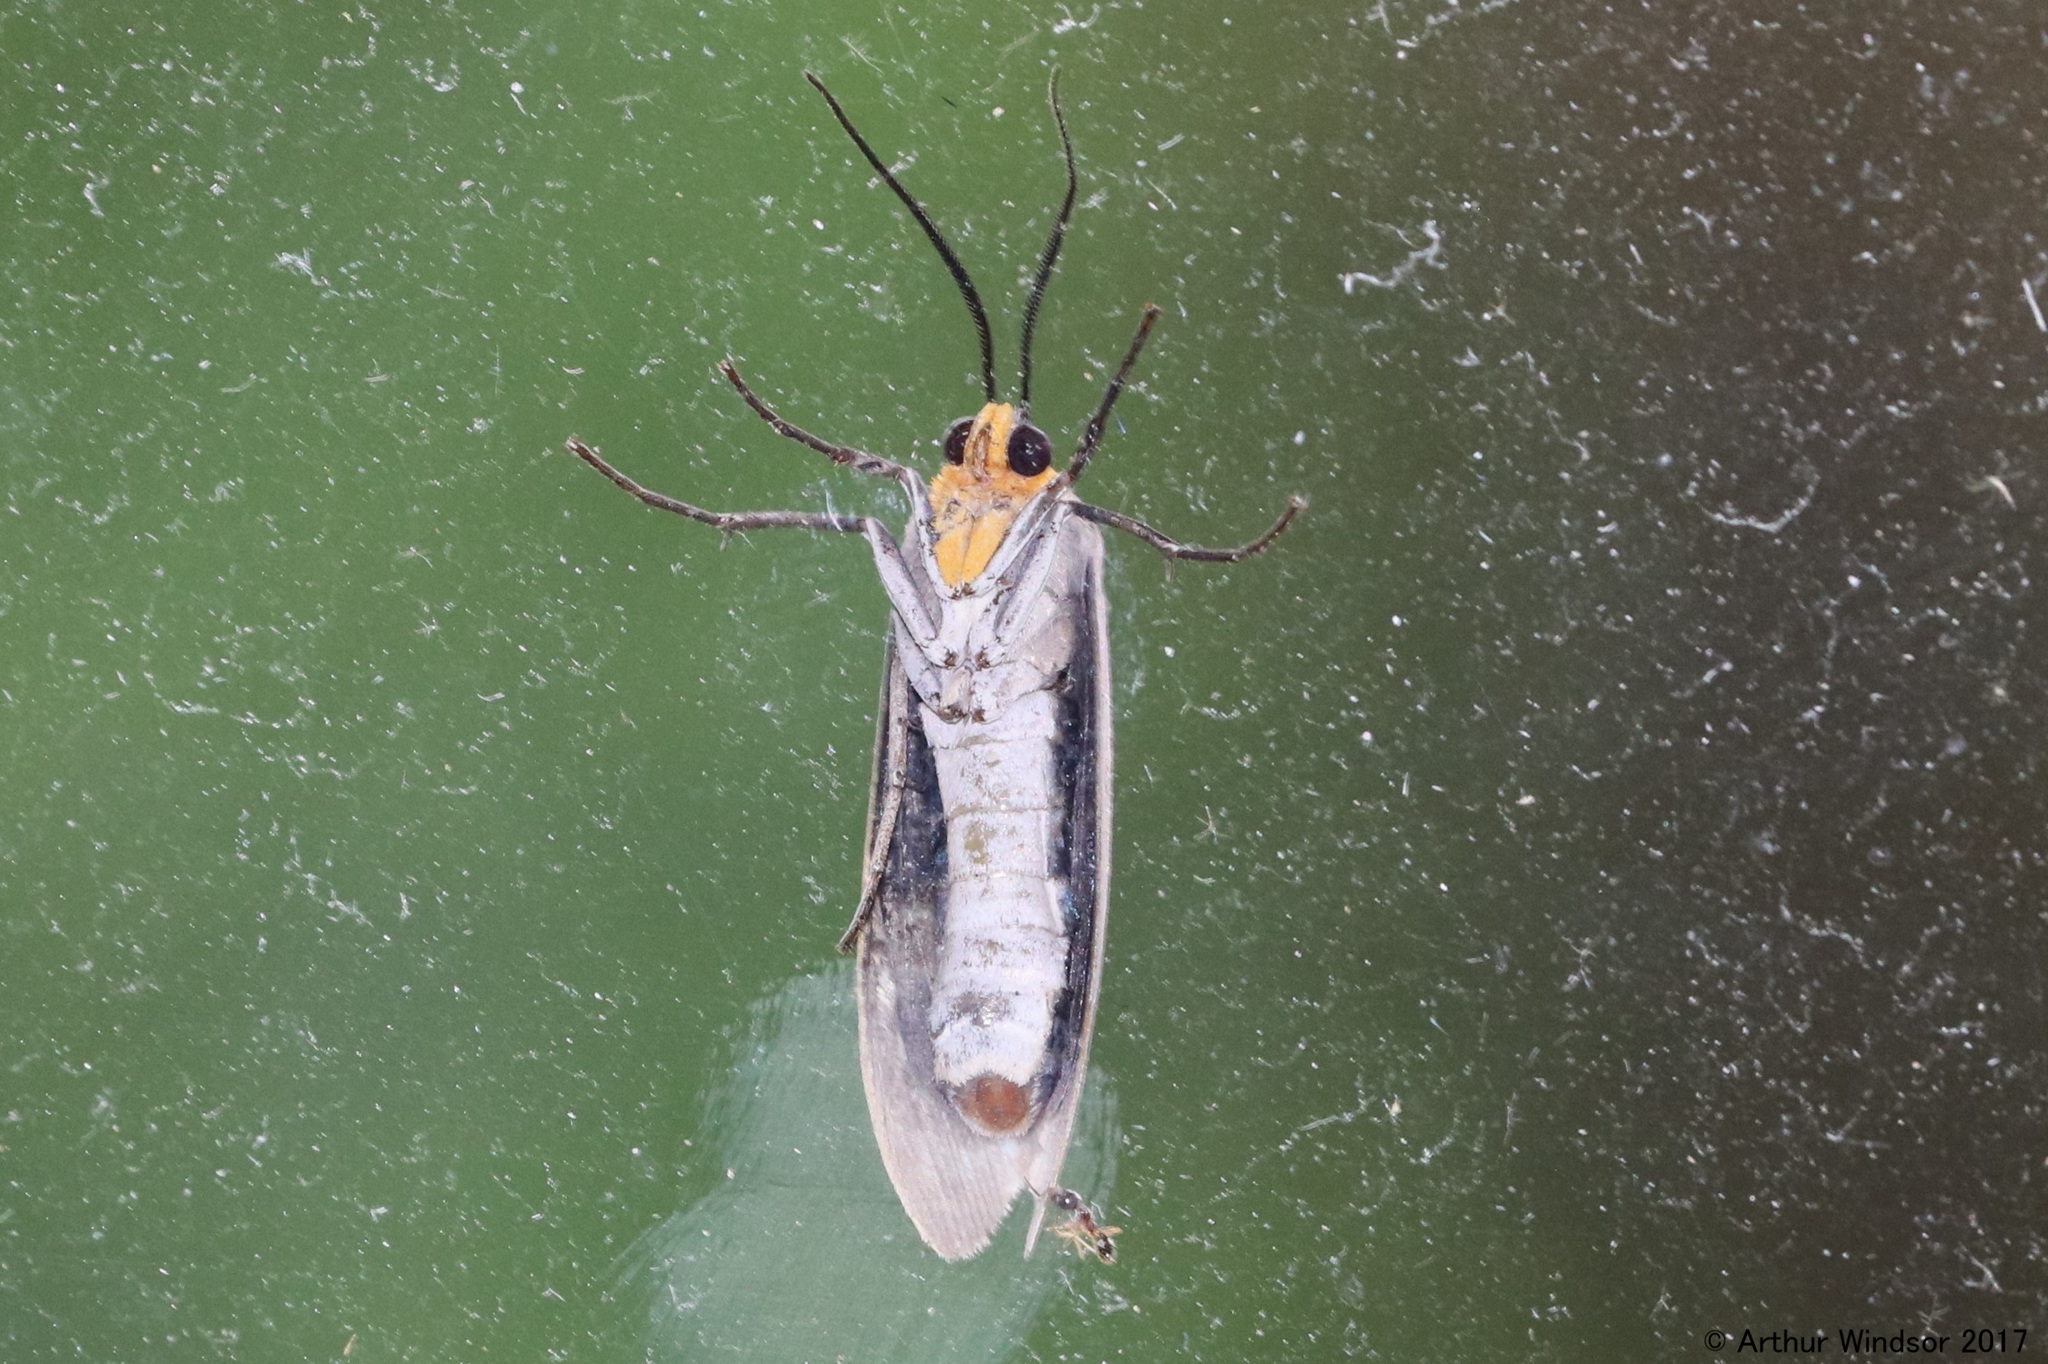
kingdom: Animalia
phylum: Arthropoda
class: Insecta
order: Lepidoptera
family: Erebidae
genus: Lymire
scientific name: Lymire edwardsii
